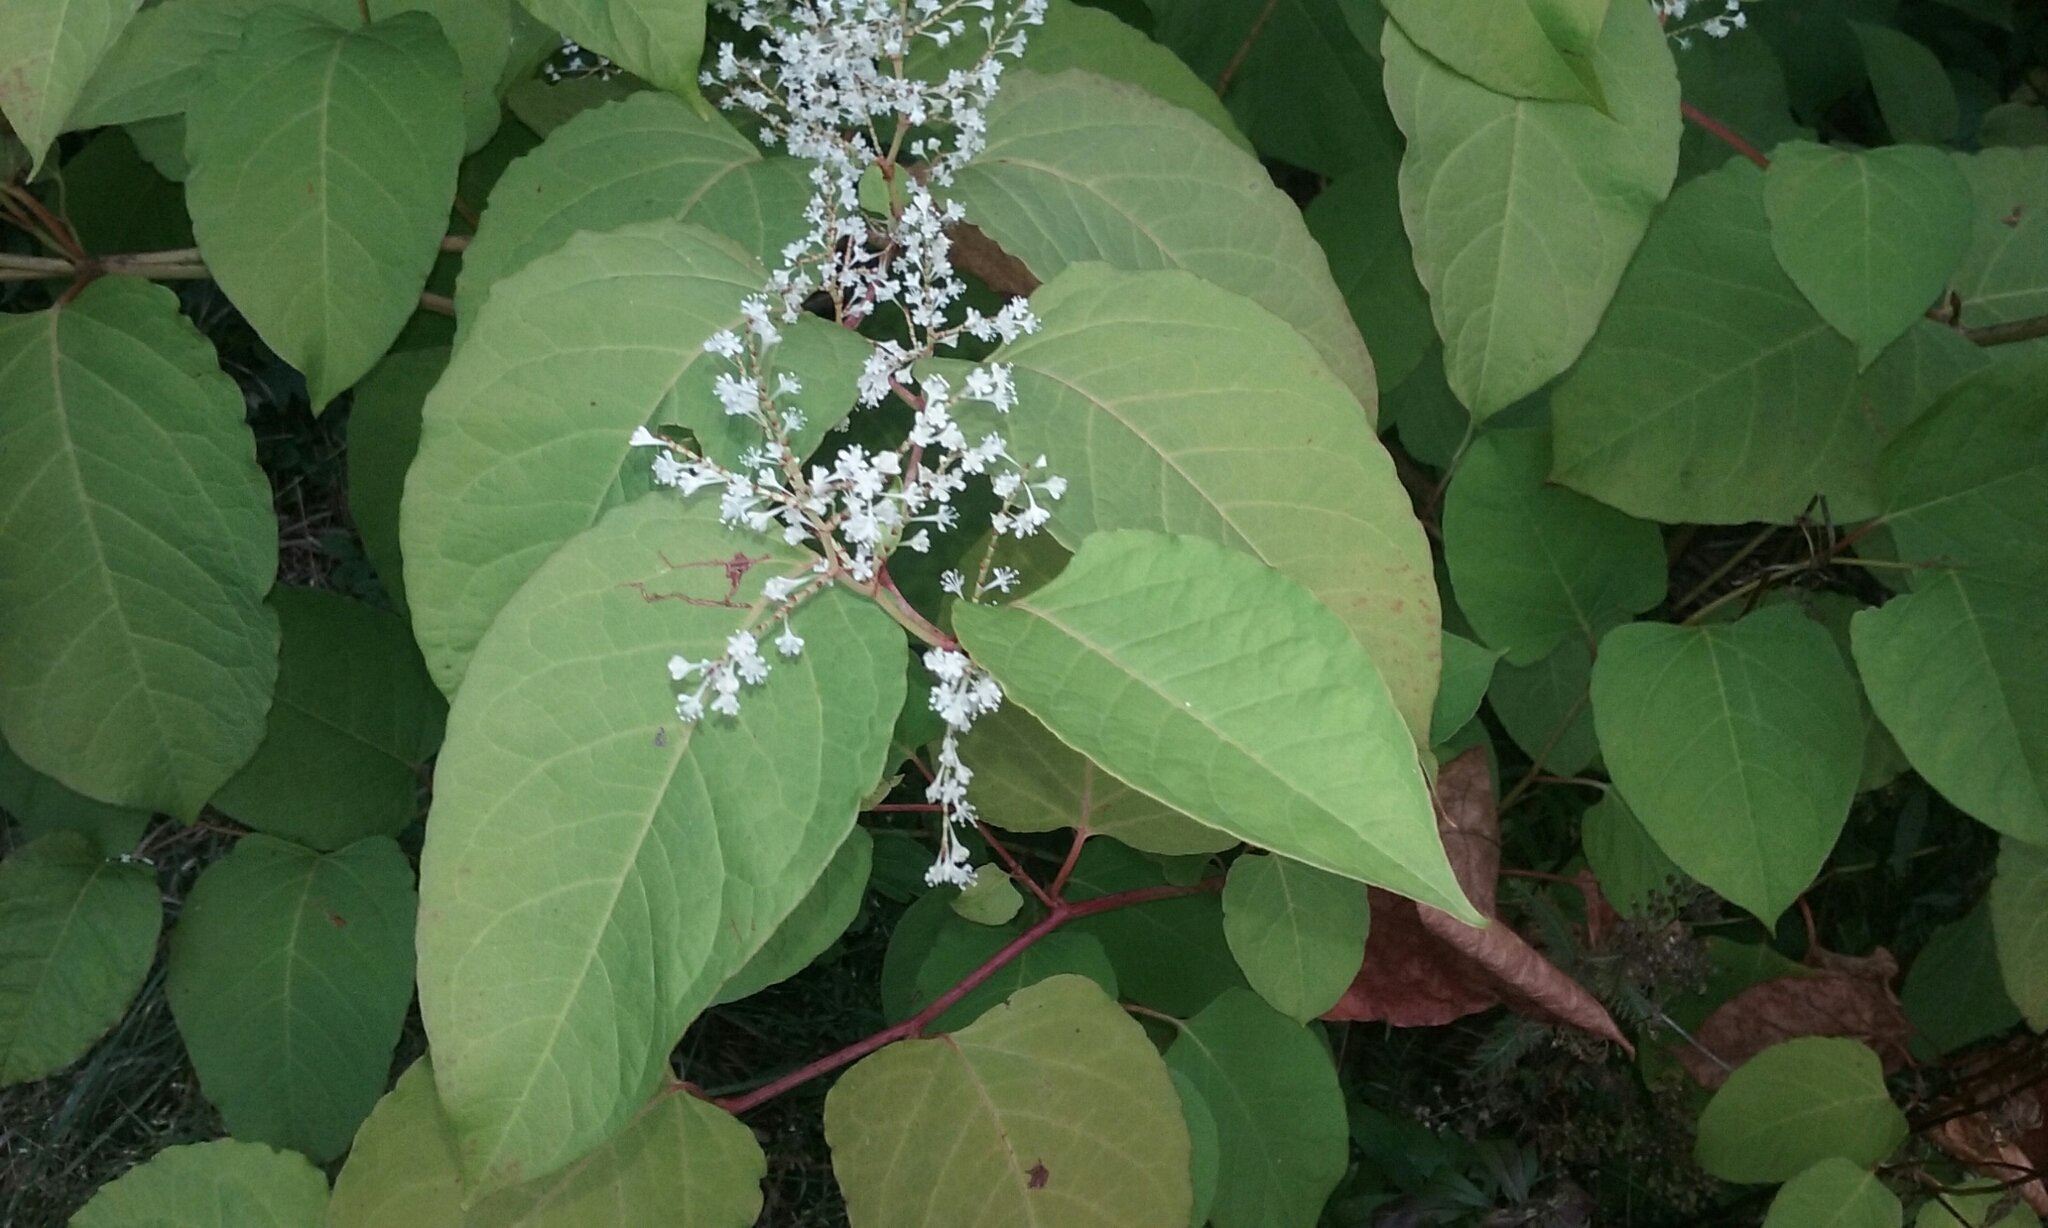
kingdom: Plantae
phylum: Tracheophyta
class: Magnoliopsida
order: Caryophyllales
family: Polygonaceae
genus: Reynoutria
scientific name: Reynoutria japonica
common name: Japanese knotweed
